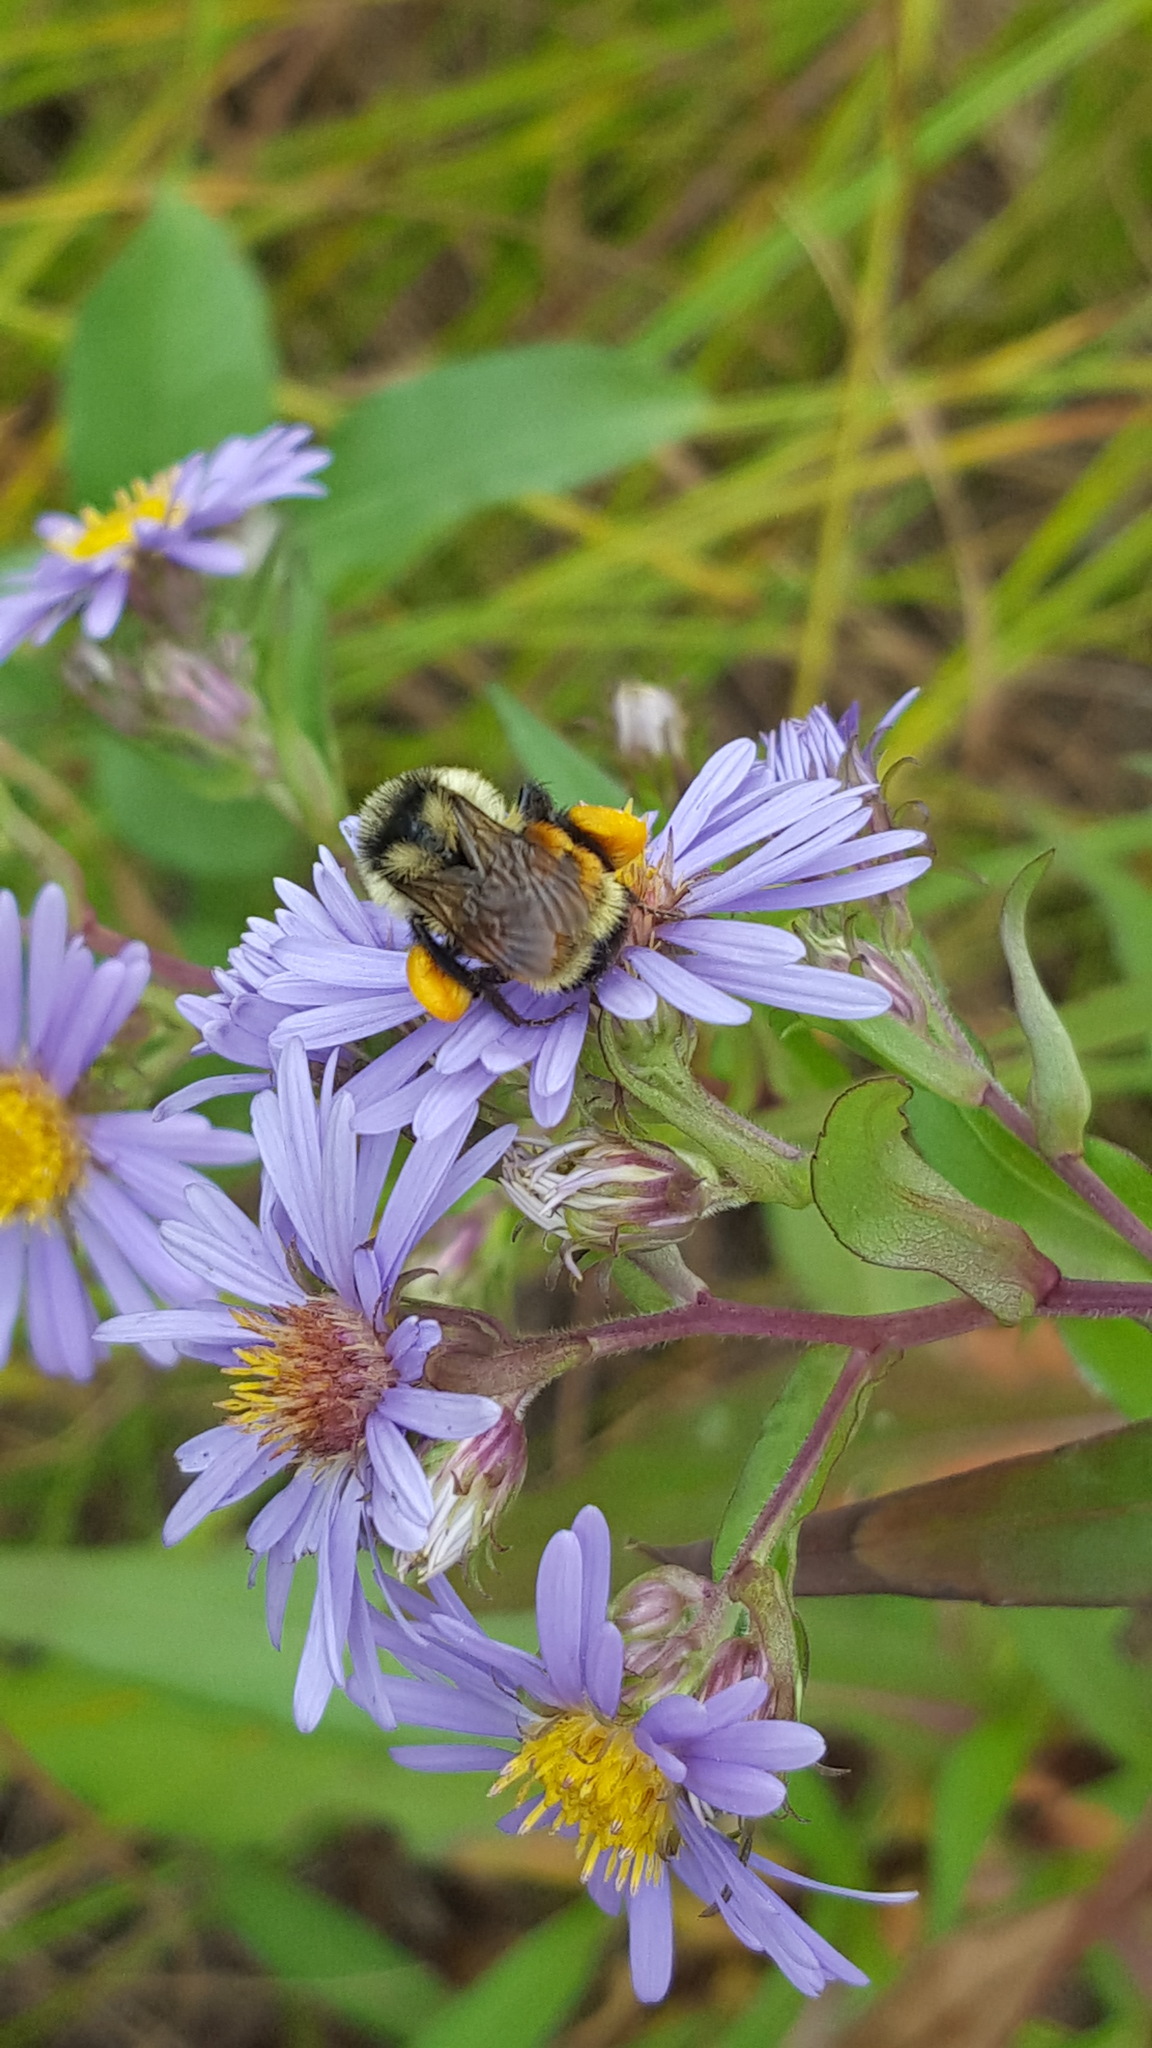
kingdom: Animalia
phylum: Arthropoda
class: Insecta
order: Hymenoptera
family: Apidae
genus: Bombus
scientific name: Bombus ternarius
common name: Tri-colored bumble bee
